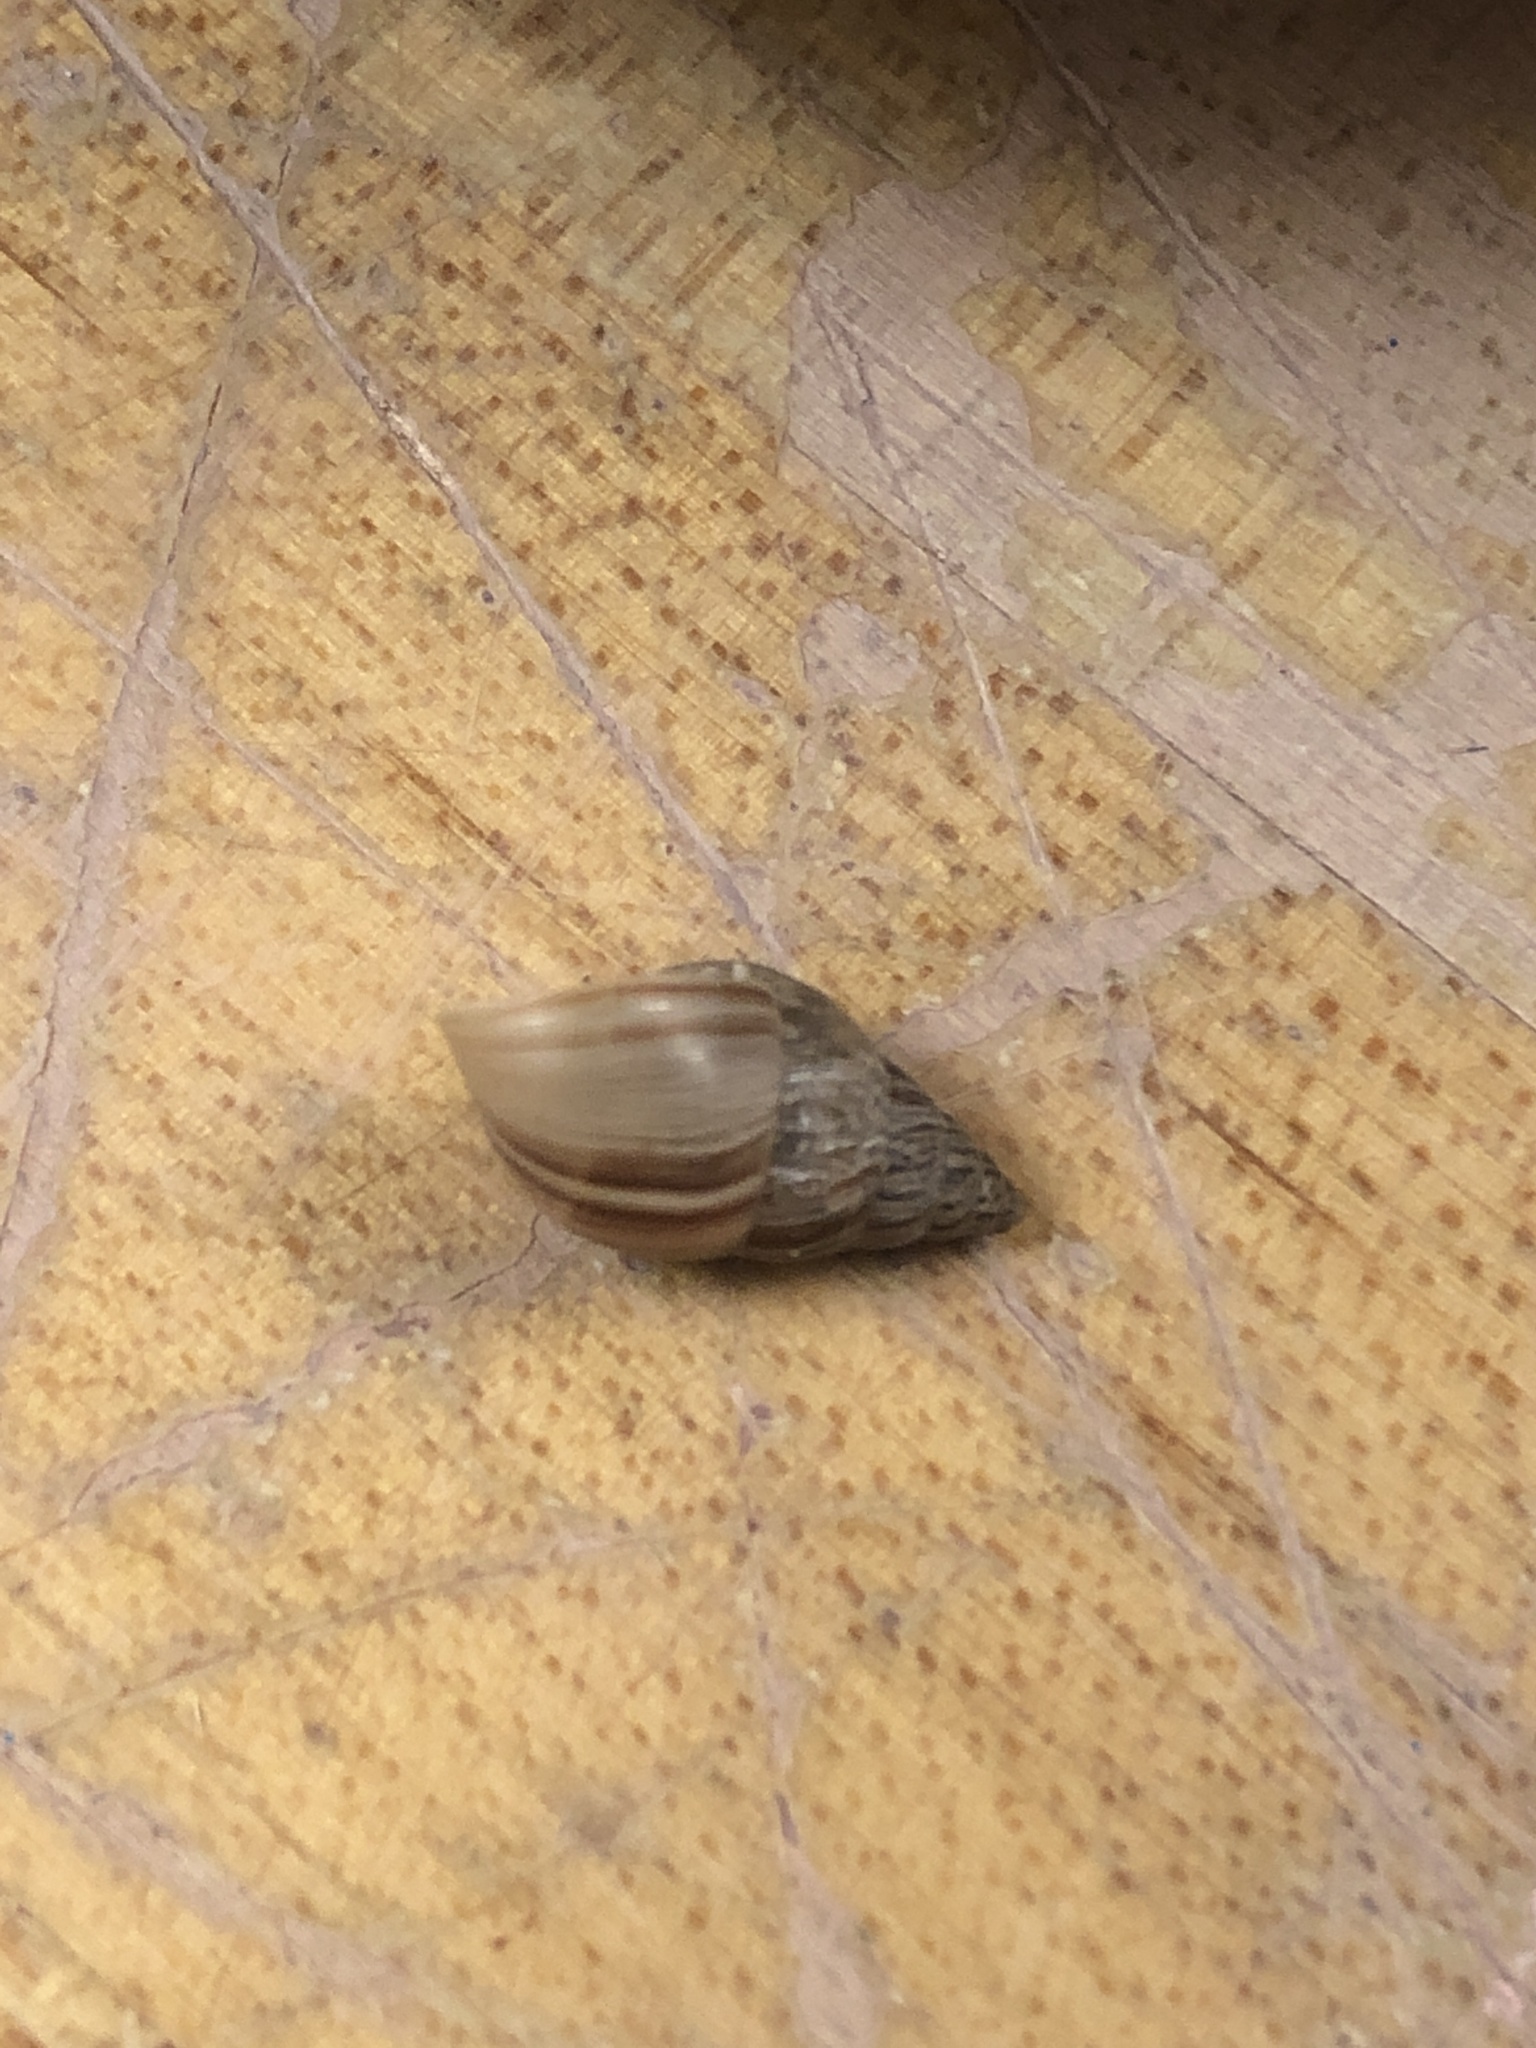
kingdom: Animalia
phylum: Mollusca
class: Gastropoda
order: Stylommatophora
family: Bulimulidae
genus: Bulimulus
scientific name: Bulimulus bonariensis
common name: Snail
